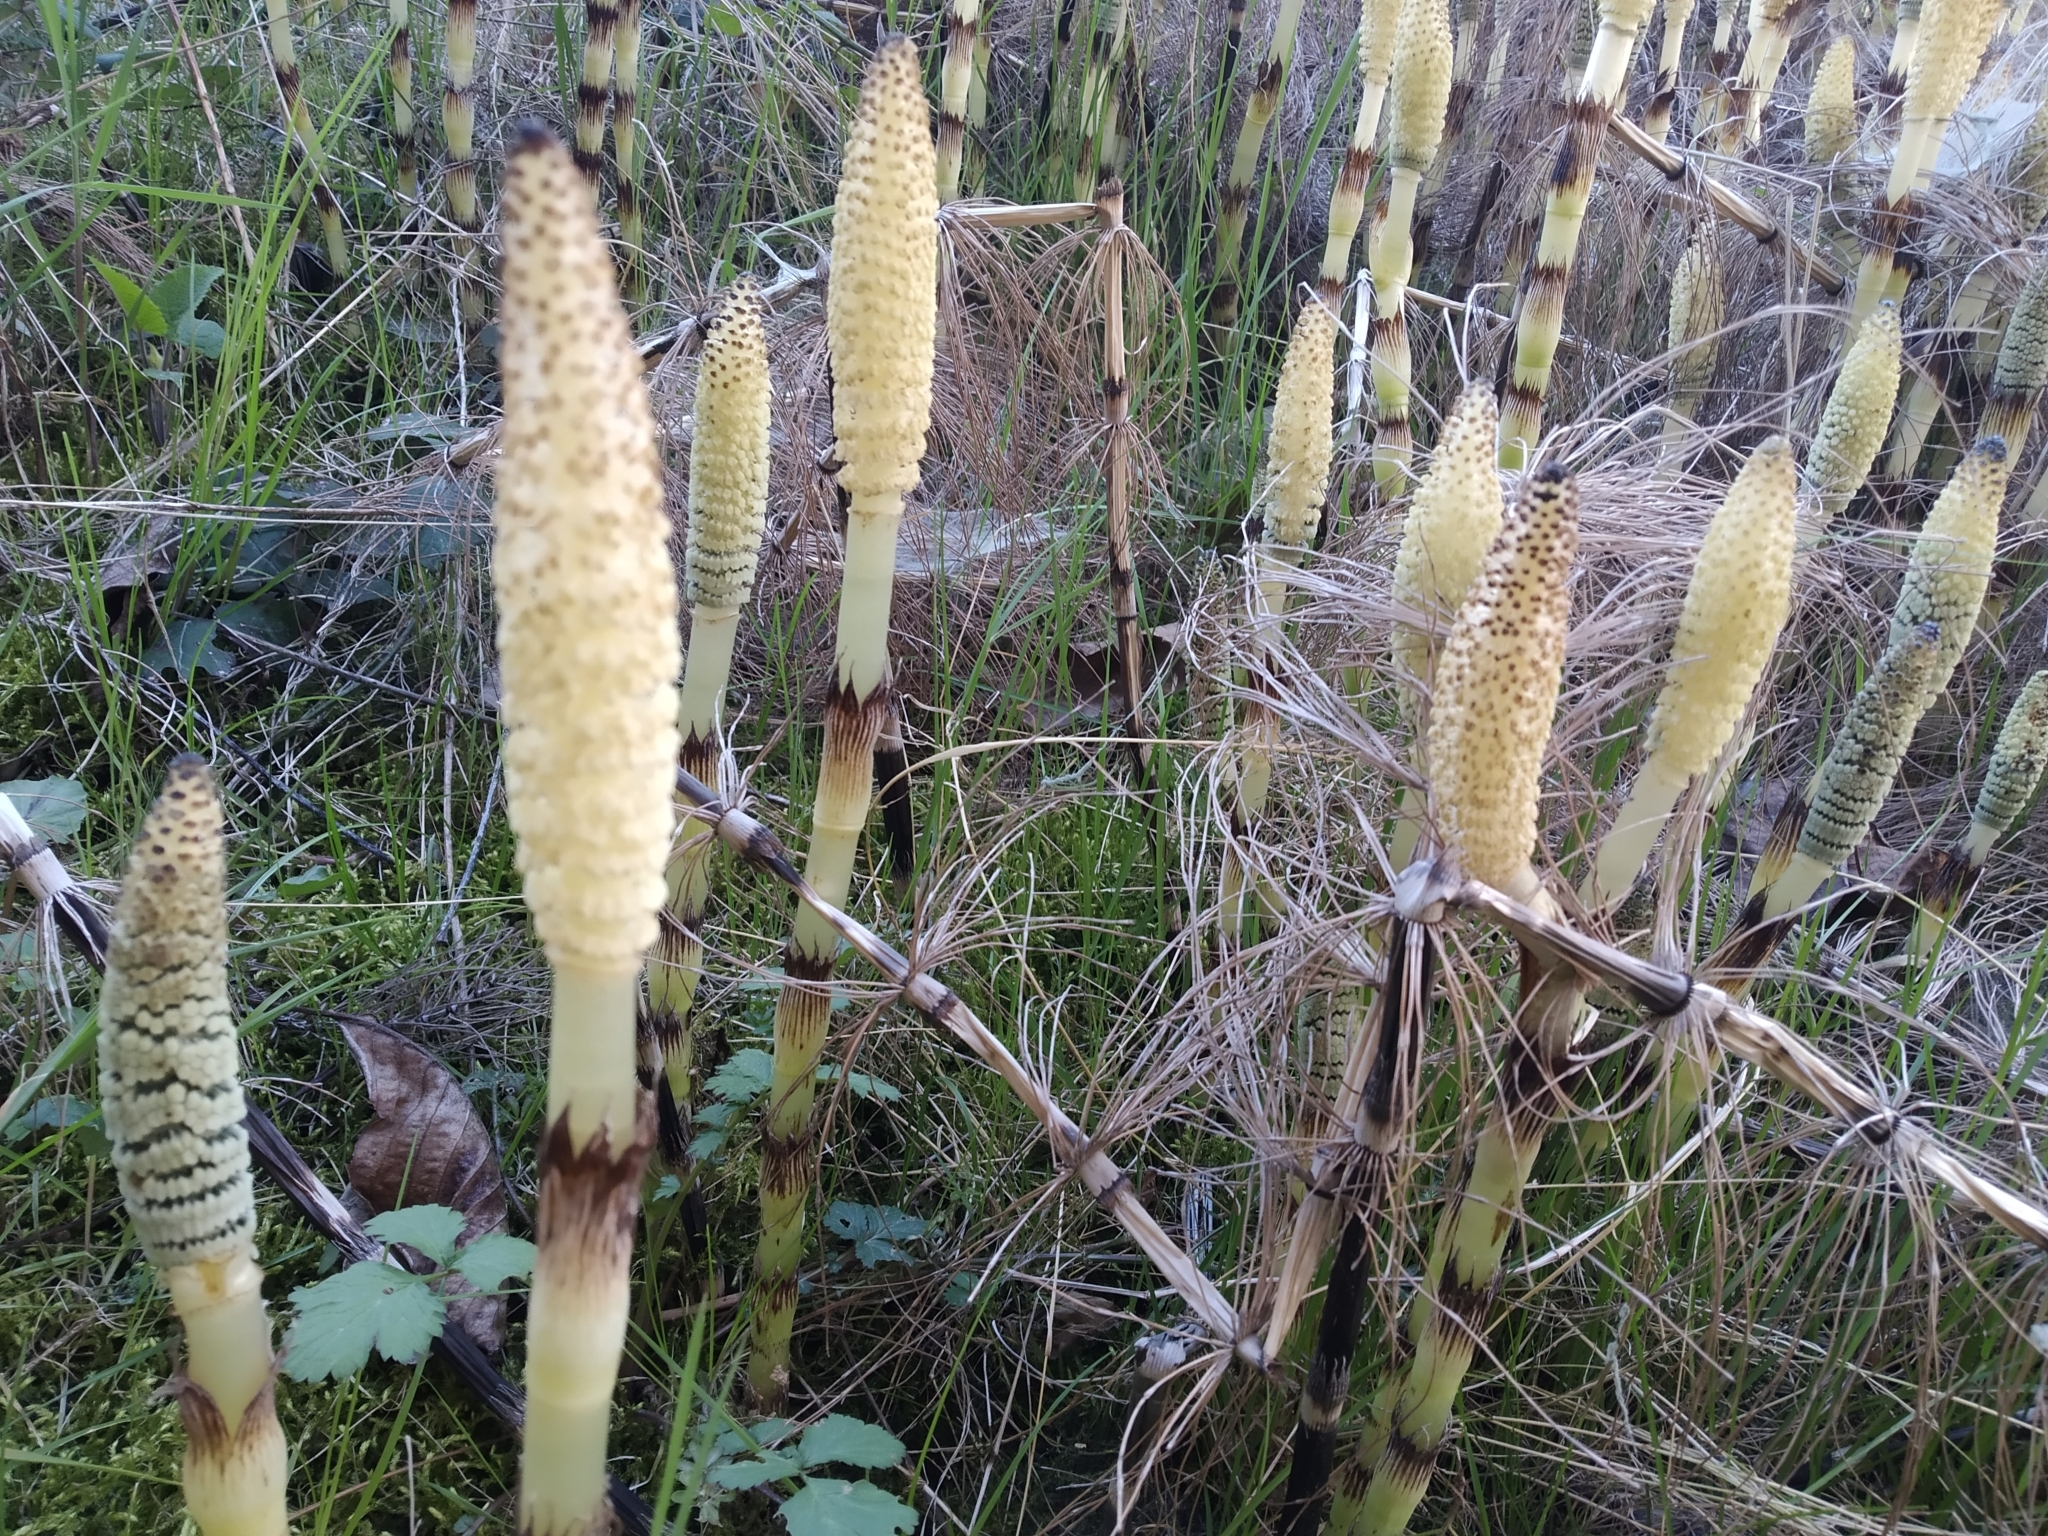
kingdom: Plantae
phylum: Tracheophyta
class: Polypodiopsida
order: Equisetales
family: Equisetaceae
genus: Equisetum
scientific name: Equisetum telmateia
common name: Great horsetail
